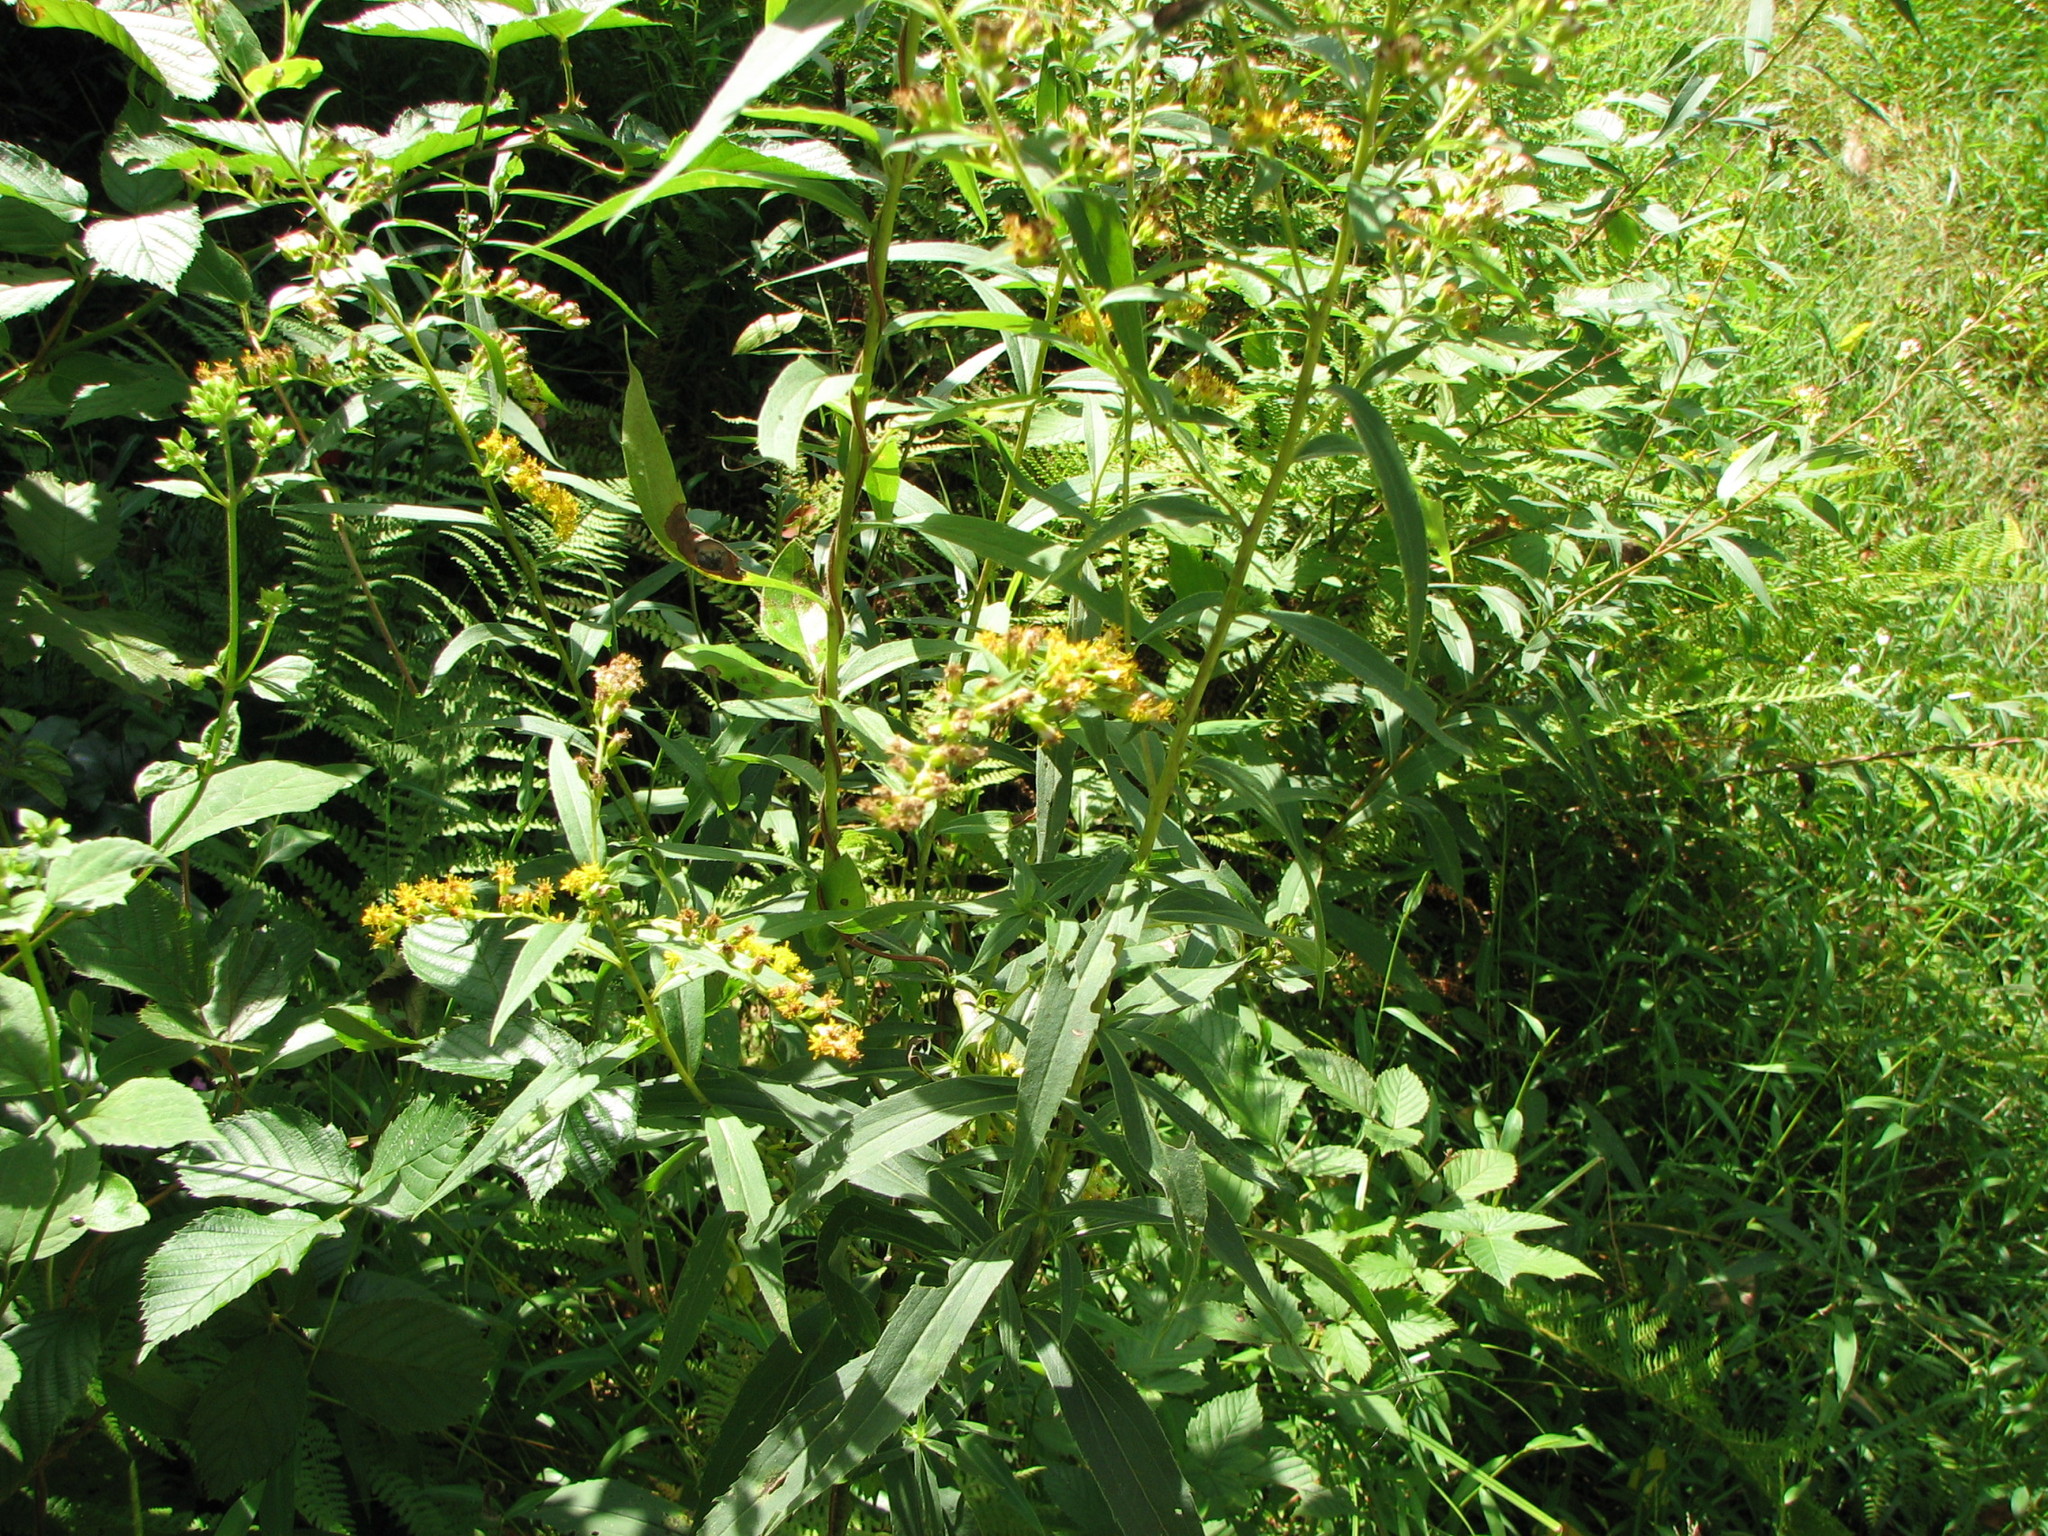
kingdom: Plantae
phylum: Tracheophyta
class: Magnoliopsida
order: Asterales
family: Asteraceae
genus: Solidago
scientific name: Solidago gigantea
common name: Giant goldenrod
